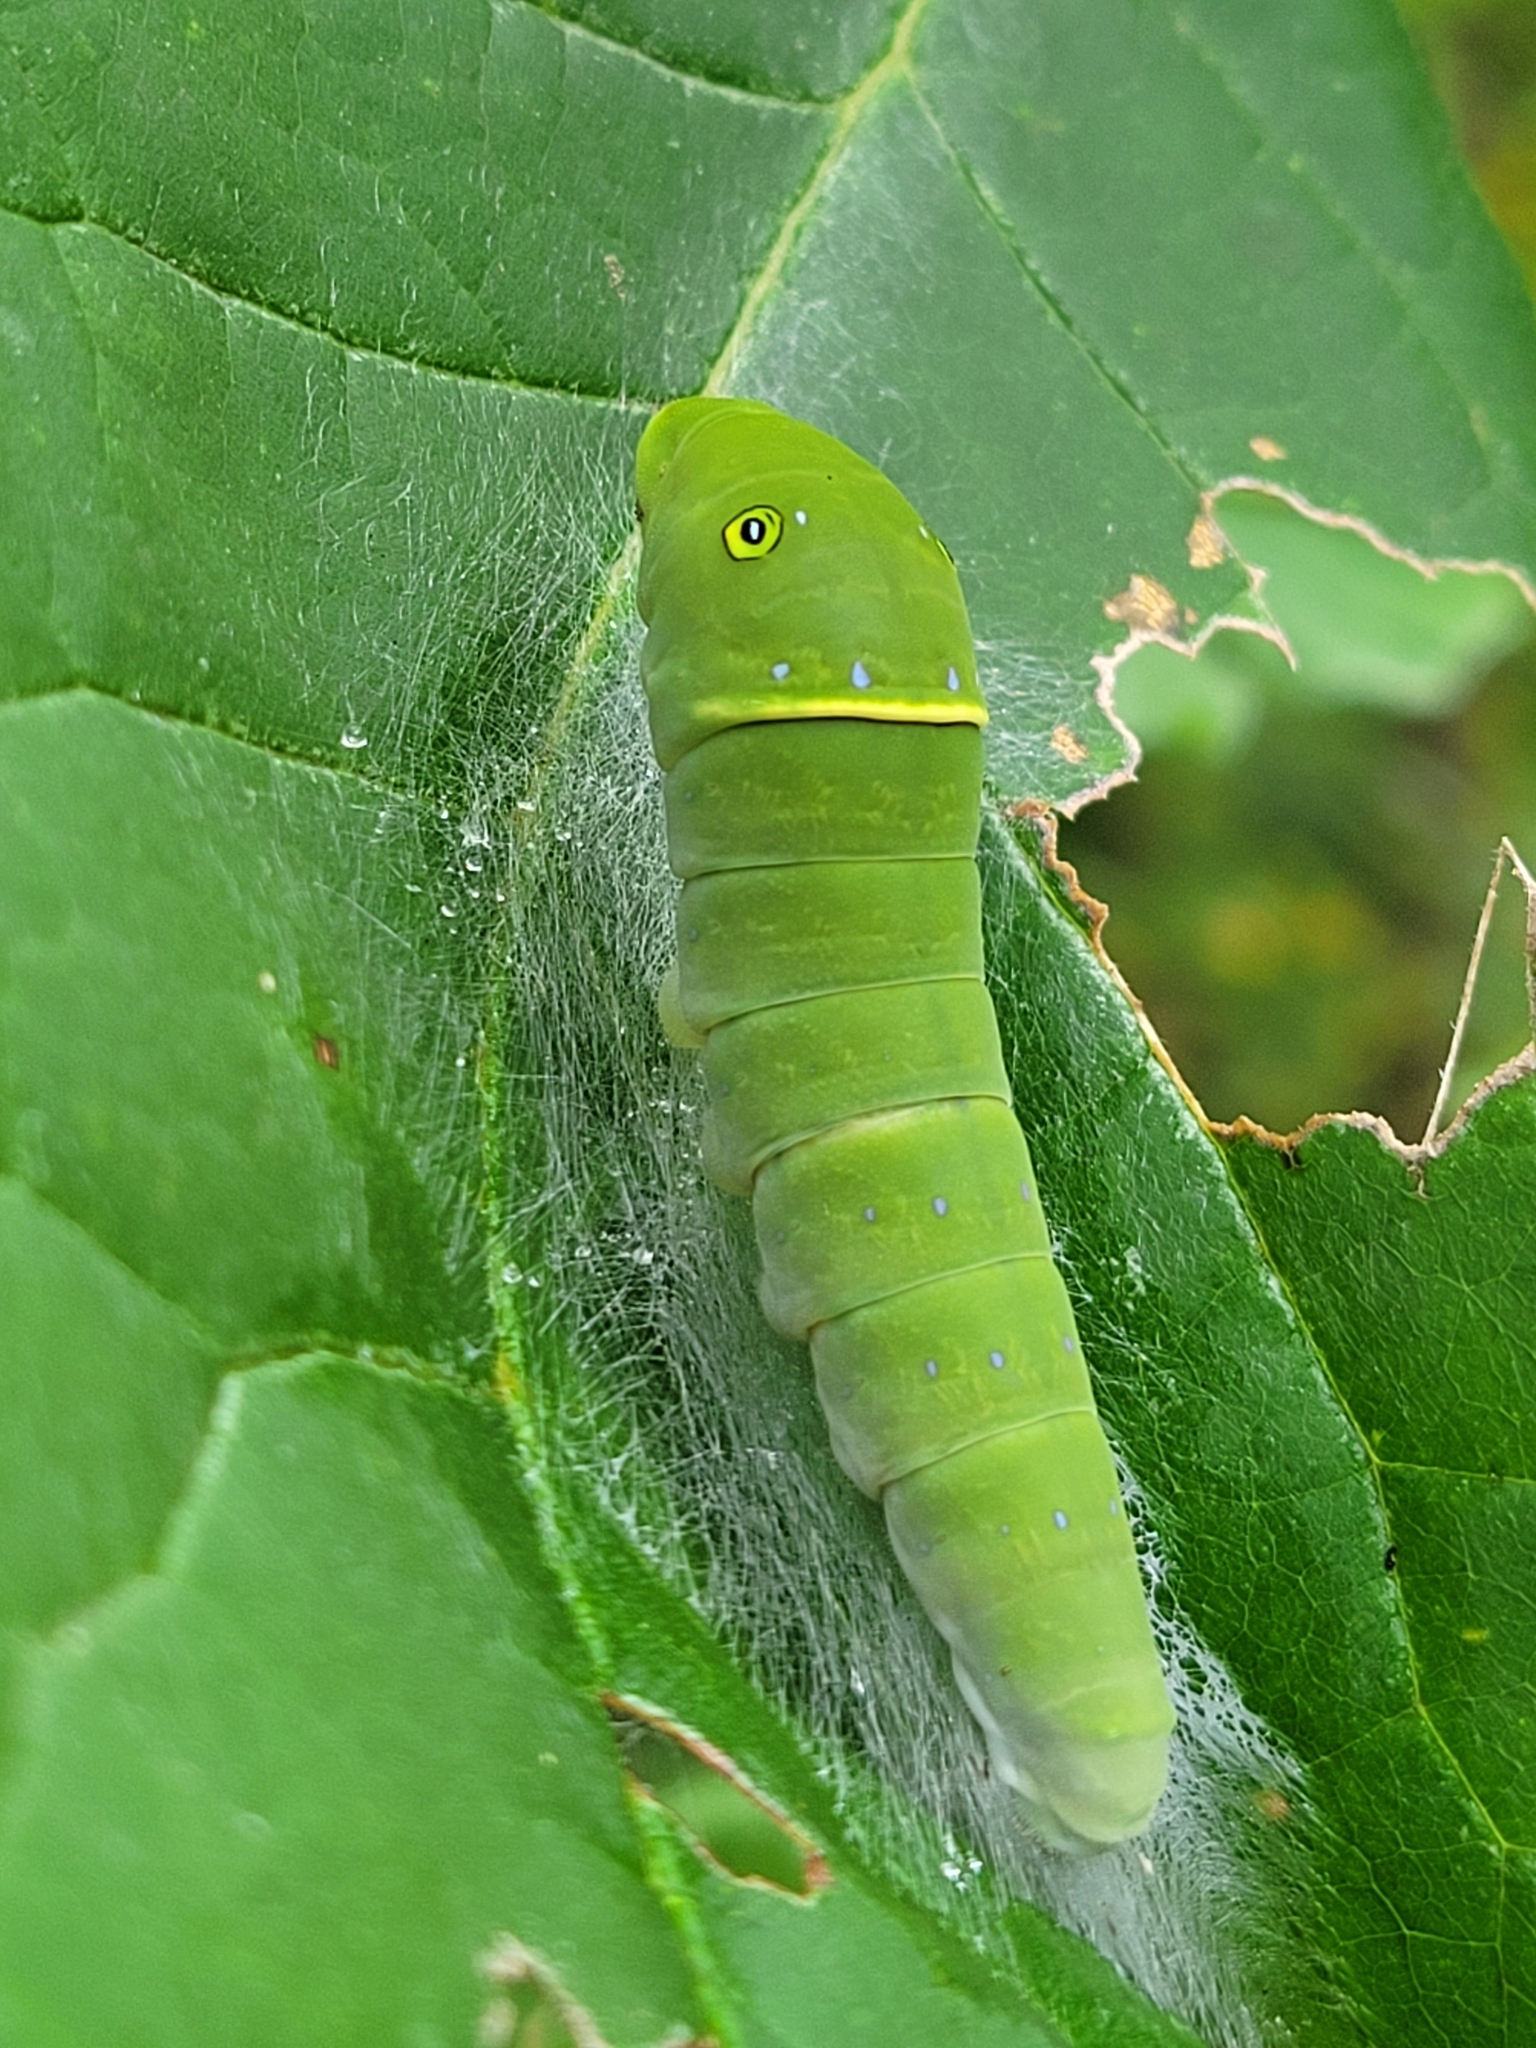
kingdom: Animalia
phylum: Arthropoda
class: Insecta
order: Lepidoptera
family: Papilionidae
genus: Papilio
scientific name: Papilio glaucus
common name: Tiger swallowtail
